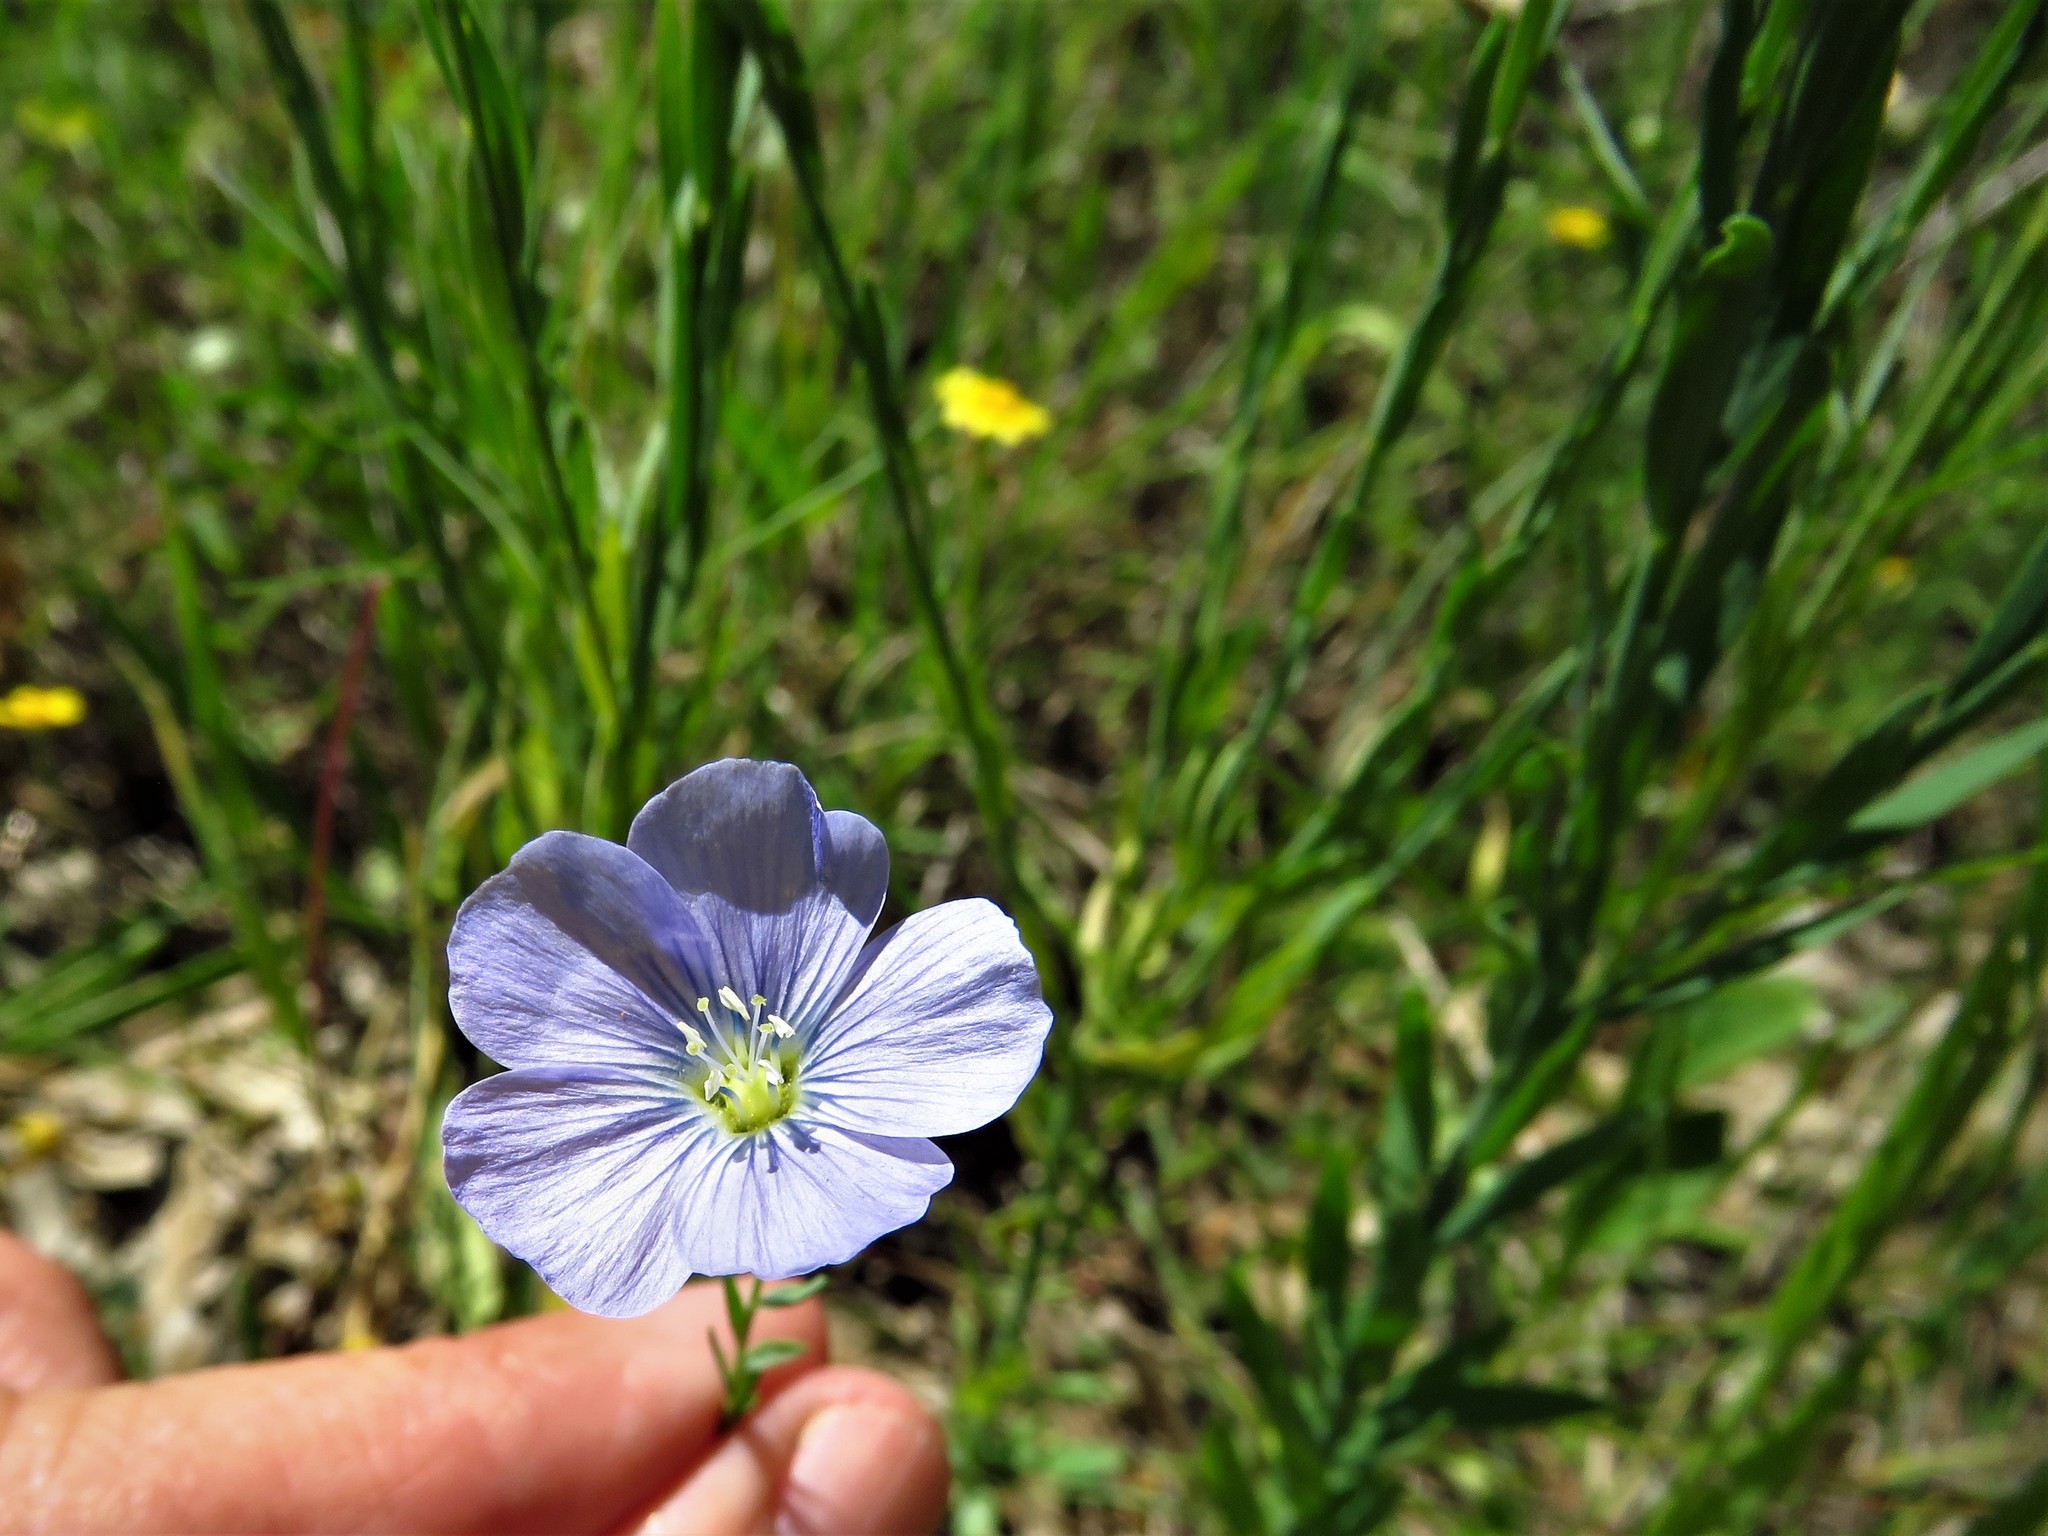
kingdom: Plantae
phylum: Tracheophyta
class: Magnoliopsida
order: Malpighiales
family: Linaceae
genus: Linum
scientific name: Linum pratense
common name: Norton's flax
